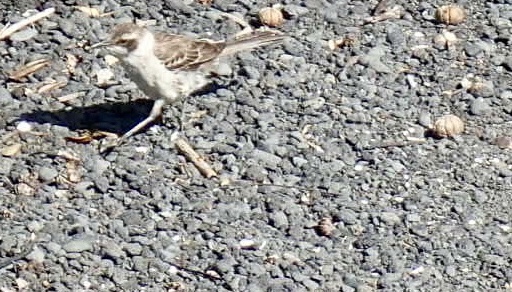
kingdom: Animalia
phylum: Chordata
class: Aves
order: Passeriformes
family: Mimidae
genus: Mimus
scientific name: Mimus parvulus
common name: Galapagos mockingbird
